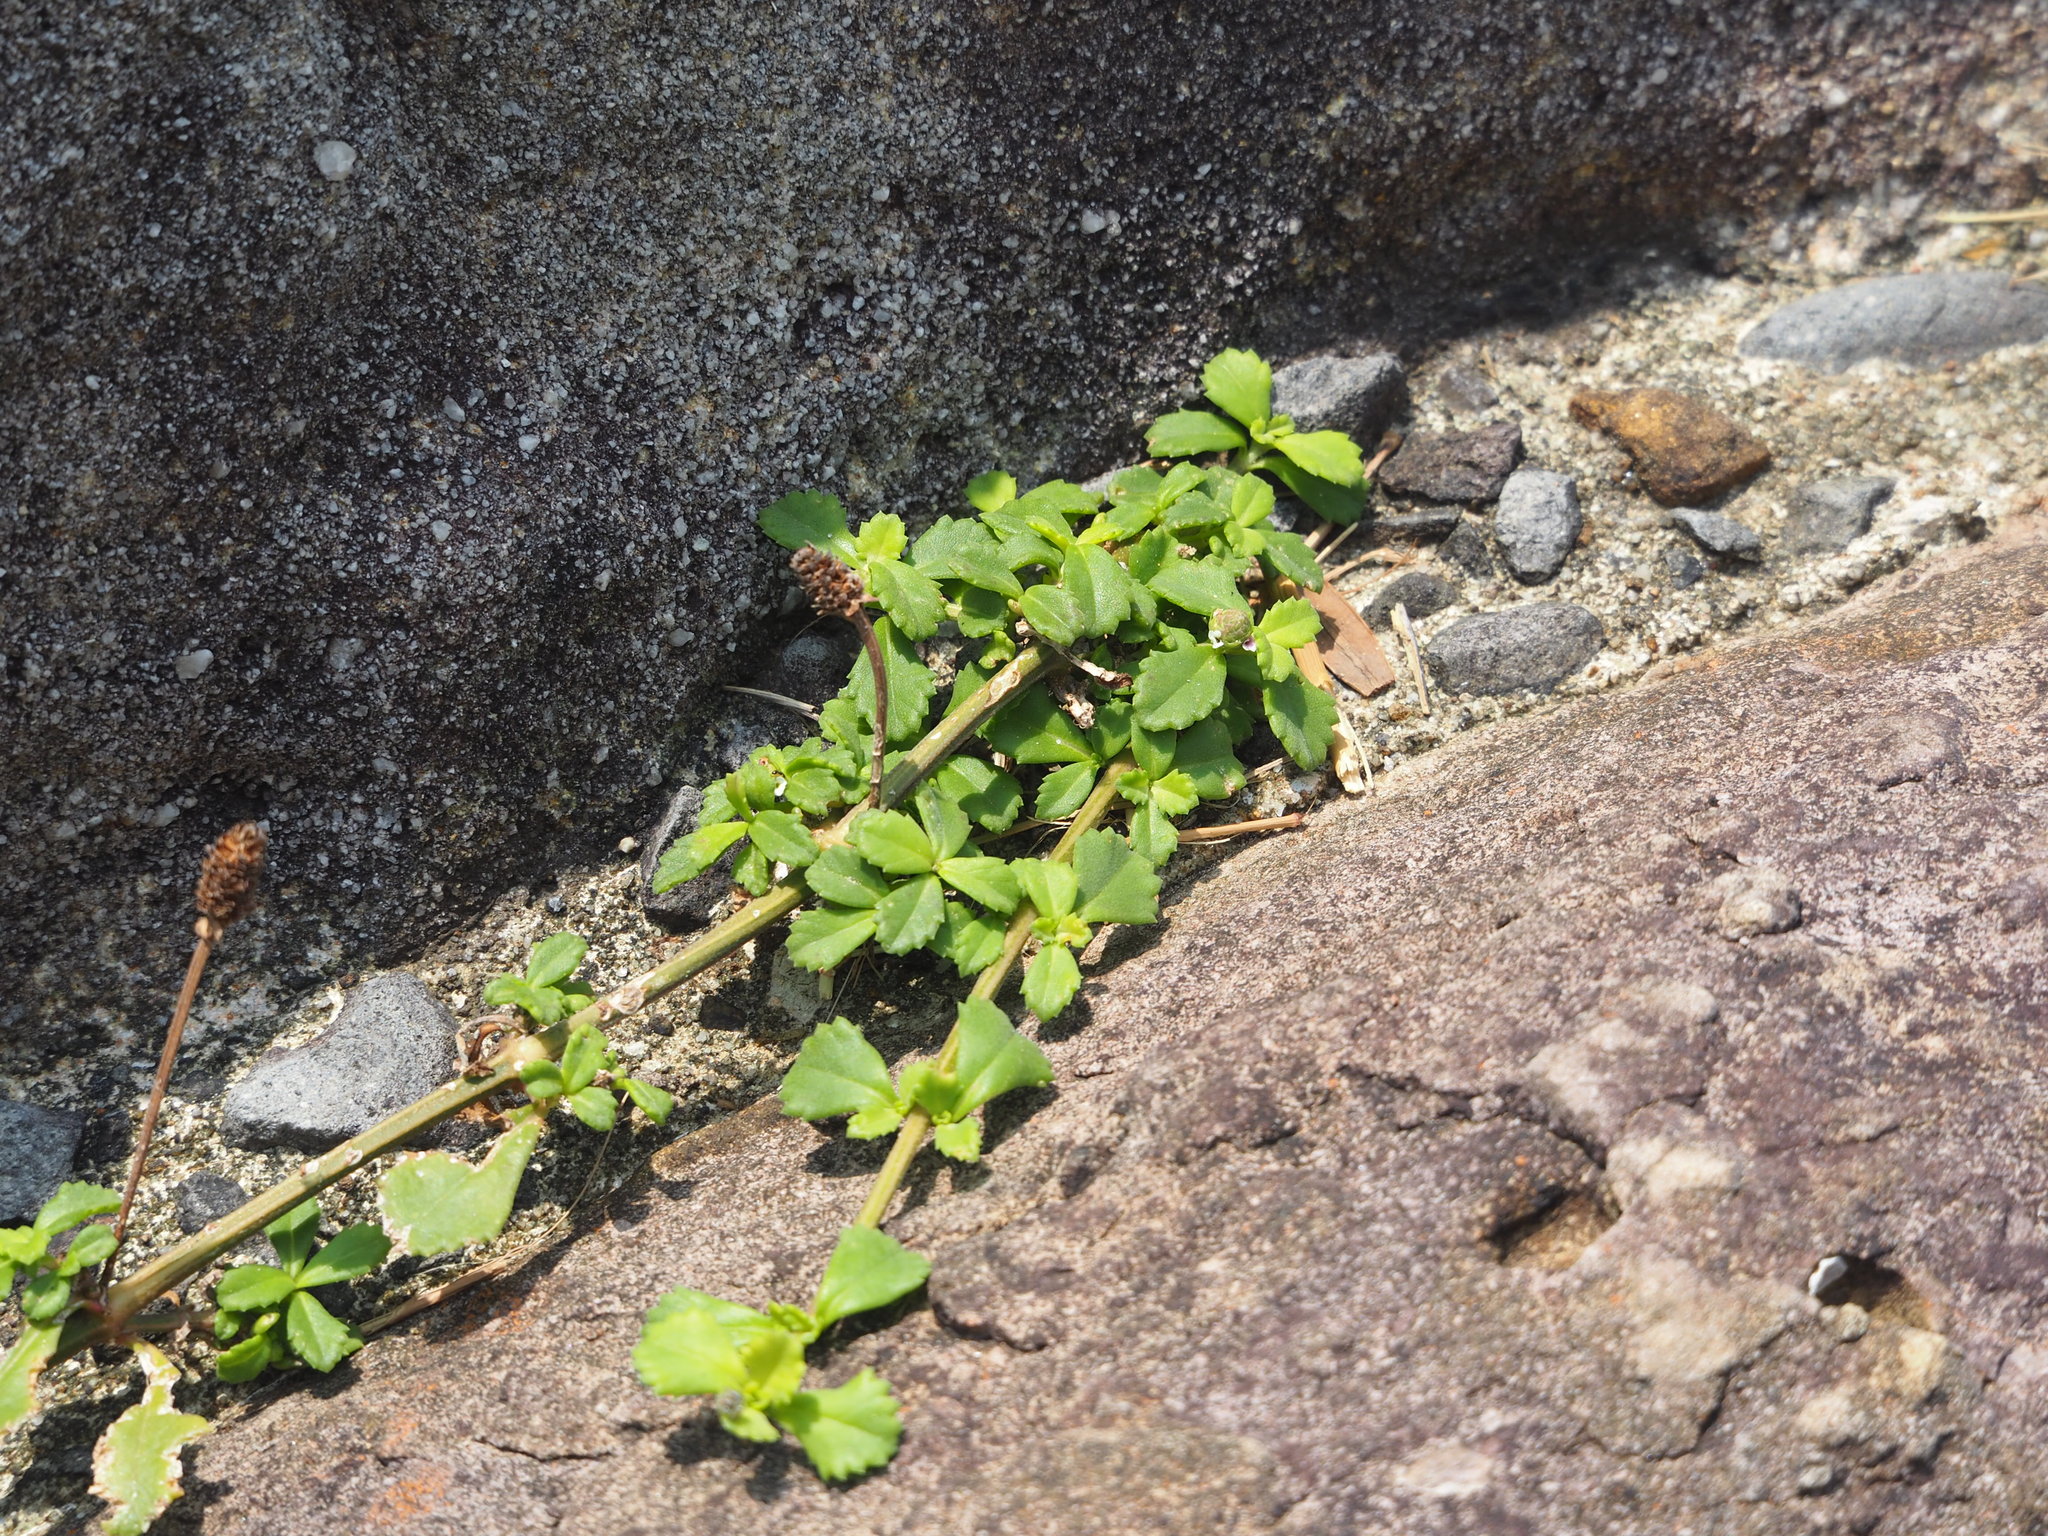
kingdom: Plantae
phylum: Tracheophyta
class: Magnoliopsida
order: Lamiales
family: Verbenaceae
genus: Phyla
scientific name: Phyla nodiflora
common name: Frogfruit
